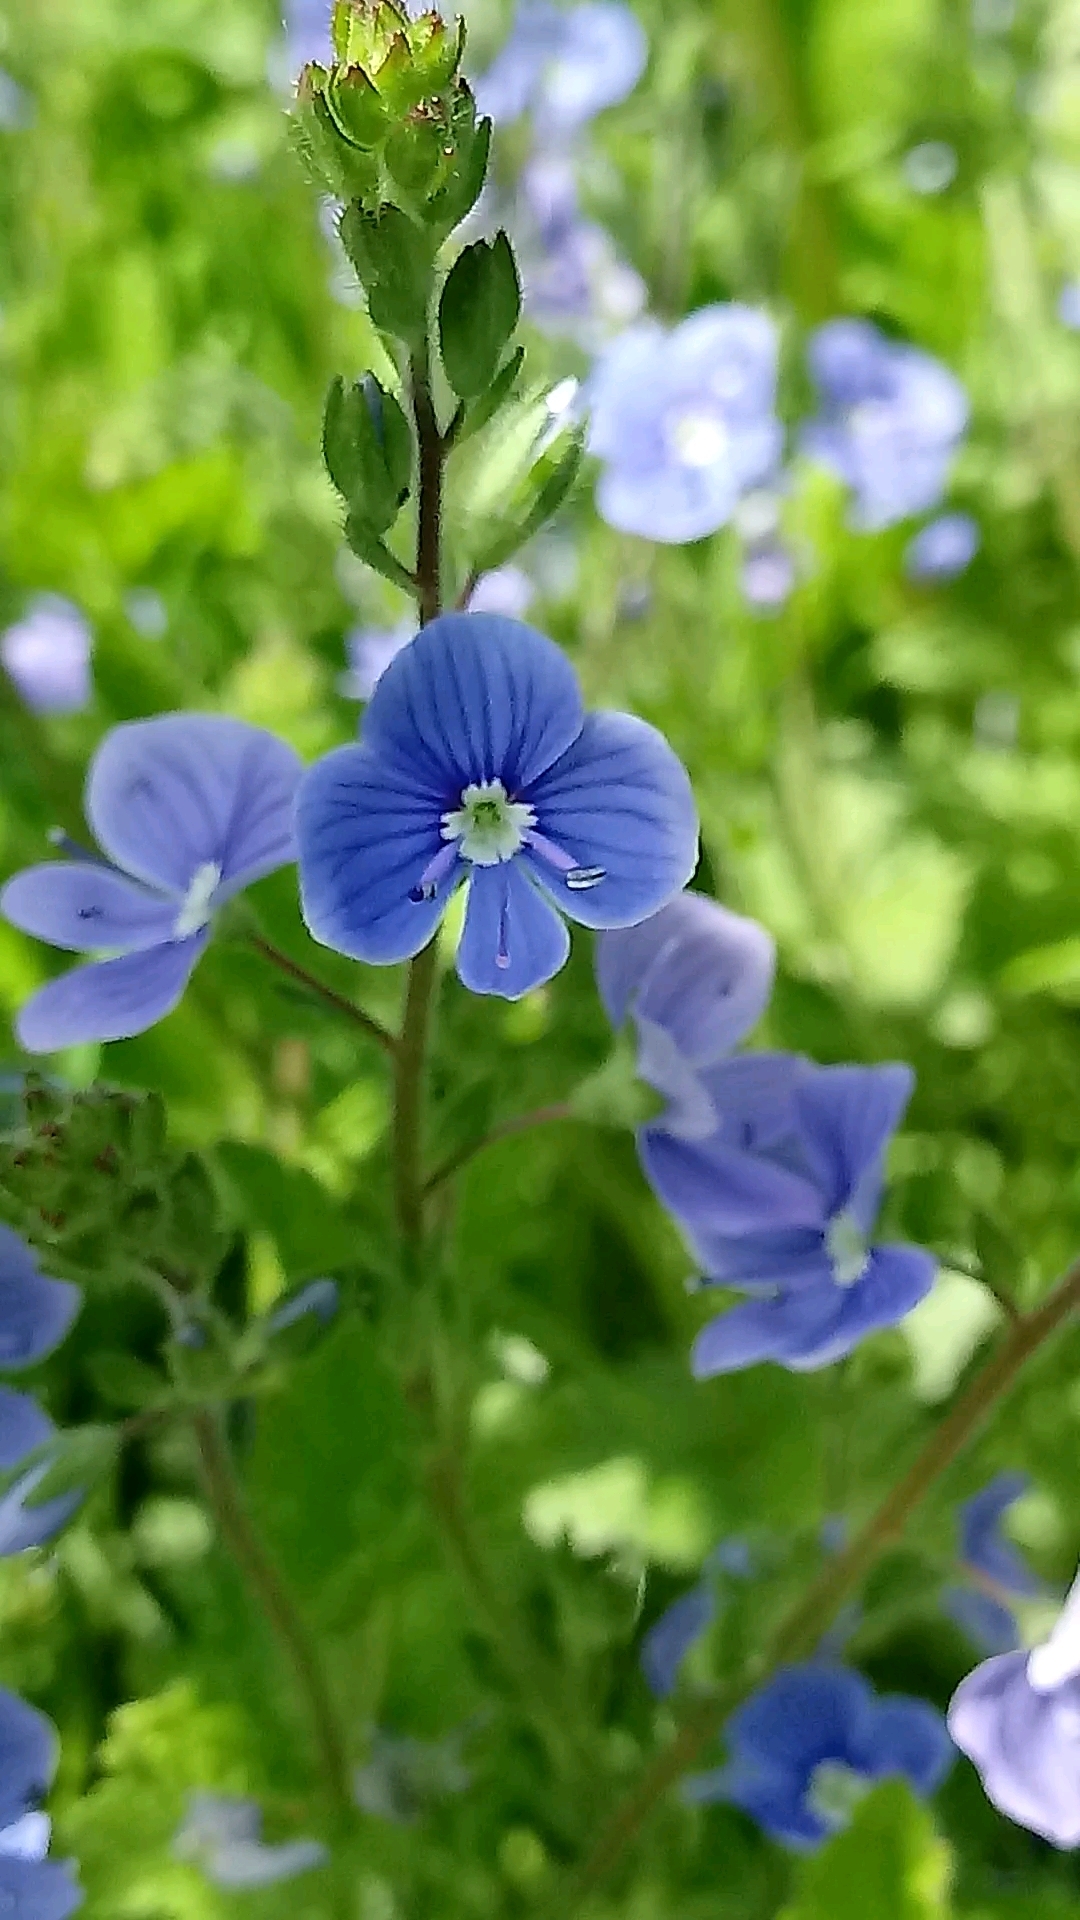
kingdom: Plantae
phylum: Tracheophyta
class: Magnoliopsida
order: Lamiales
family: Plantaginaceae
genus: Veronica
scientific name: Veronica chamaedrys
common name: Germander speedwell
